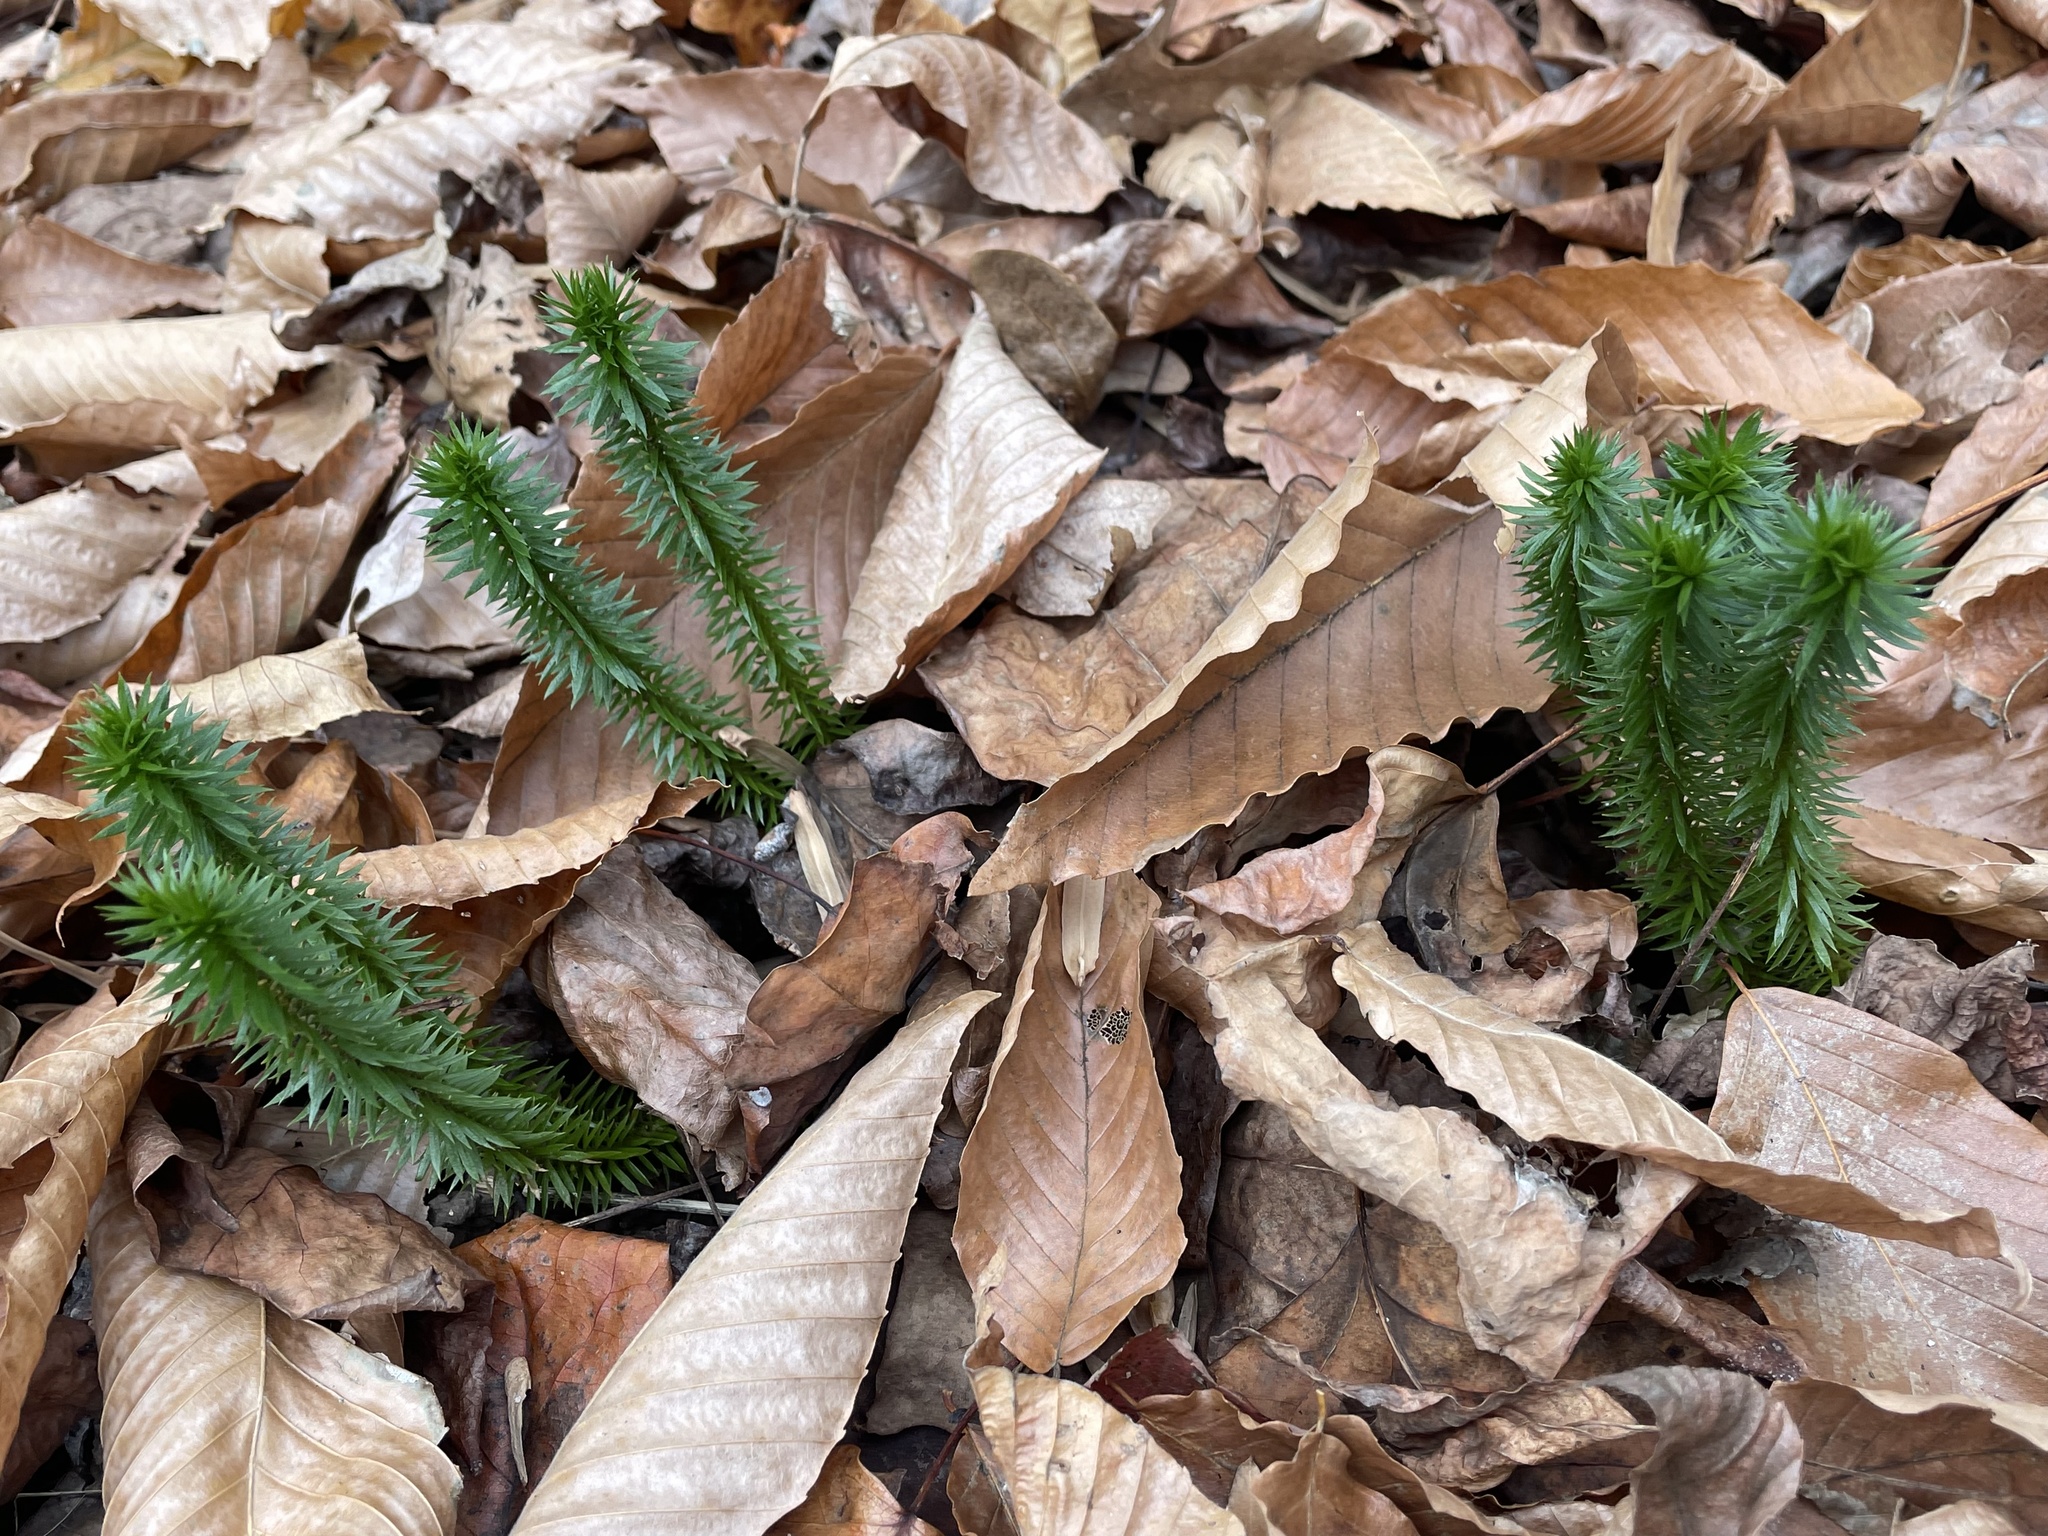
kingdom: Plantae
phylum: Tracheophyta
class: Lycopodiopsida
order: Lycopodiales
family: Lycopodiaceae
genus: Huperzia
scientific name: Huperzia lucidula
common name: Shining clubmoss
